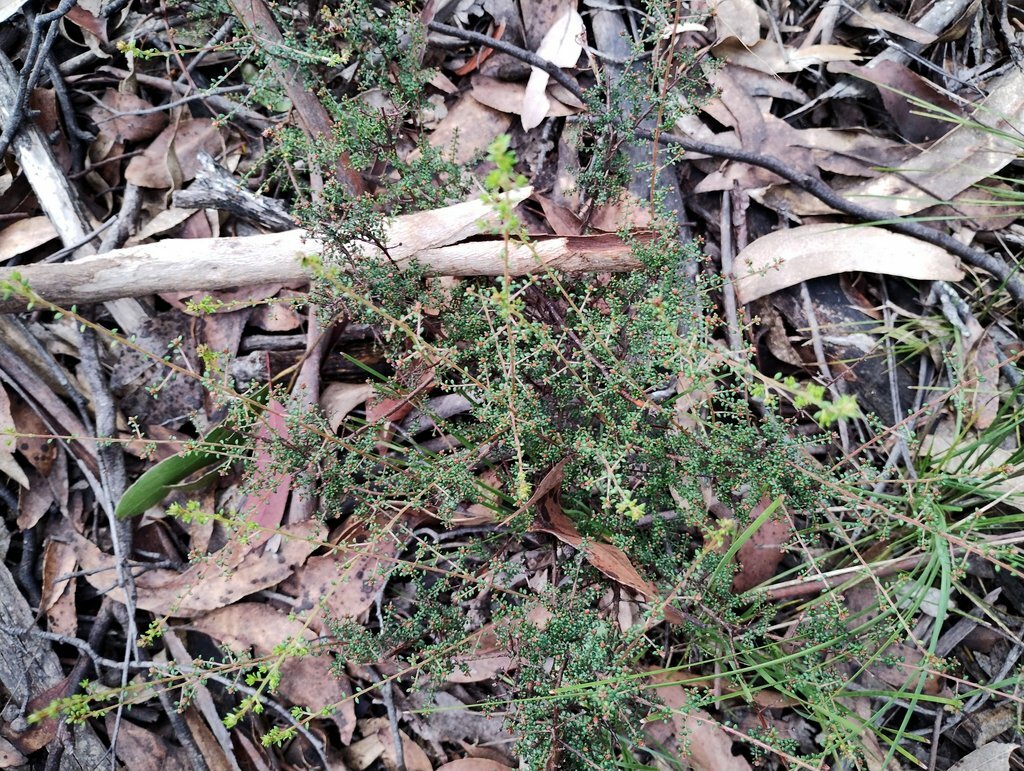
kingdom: Plantae
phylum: Tracheophyta
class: Magnoliopsida
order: Fabales
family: Fabaceae
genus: Pultenaea
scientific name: Pultenaea gunnii
